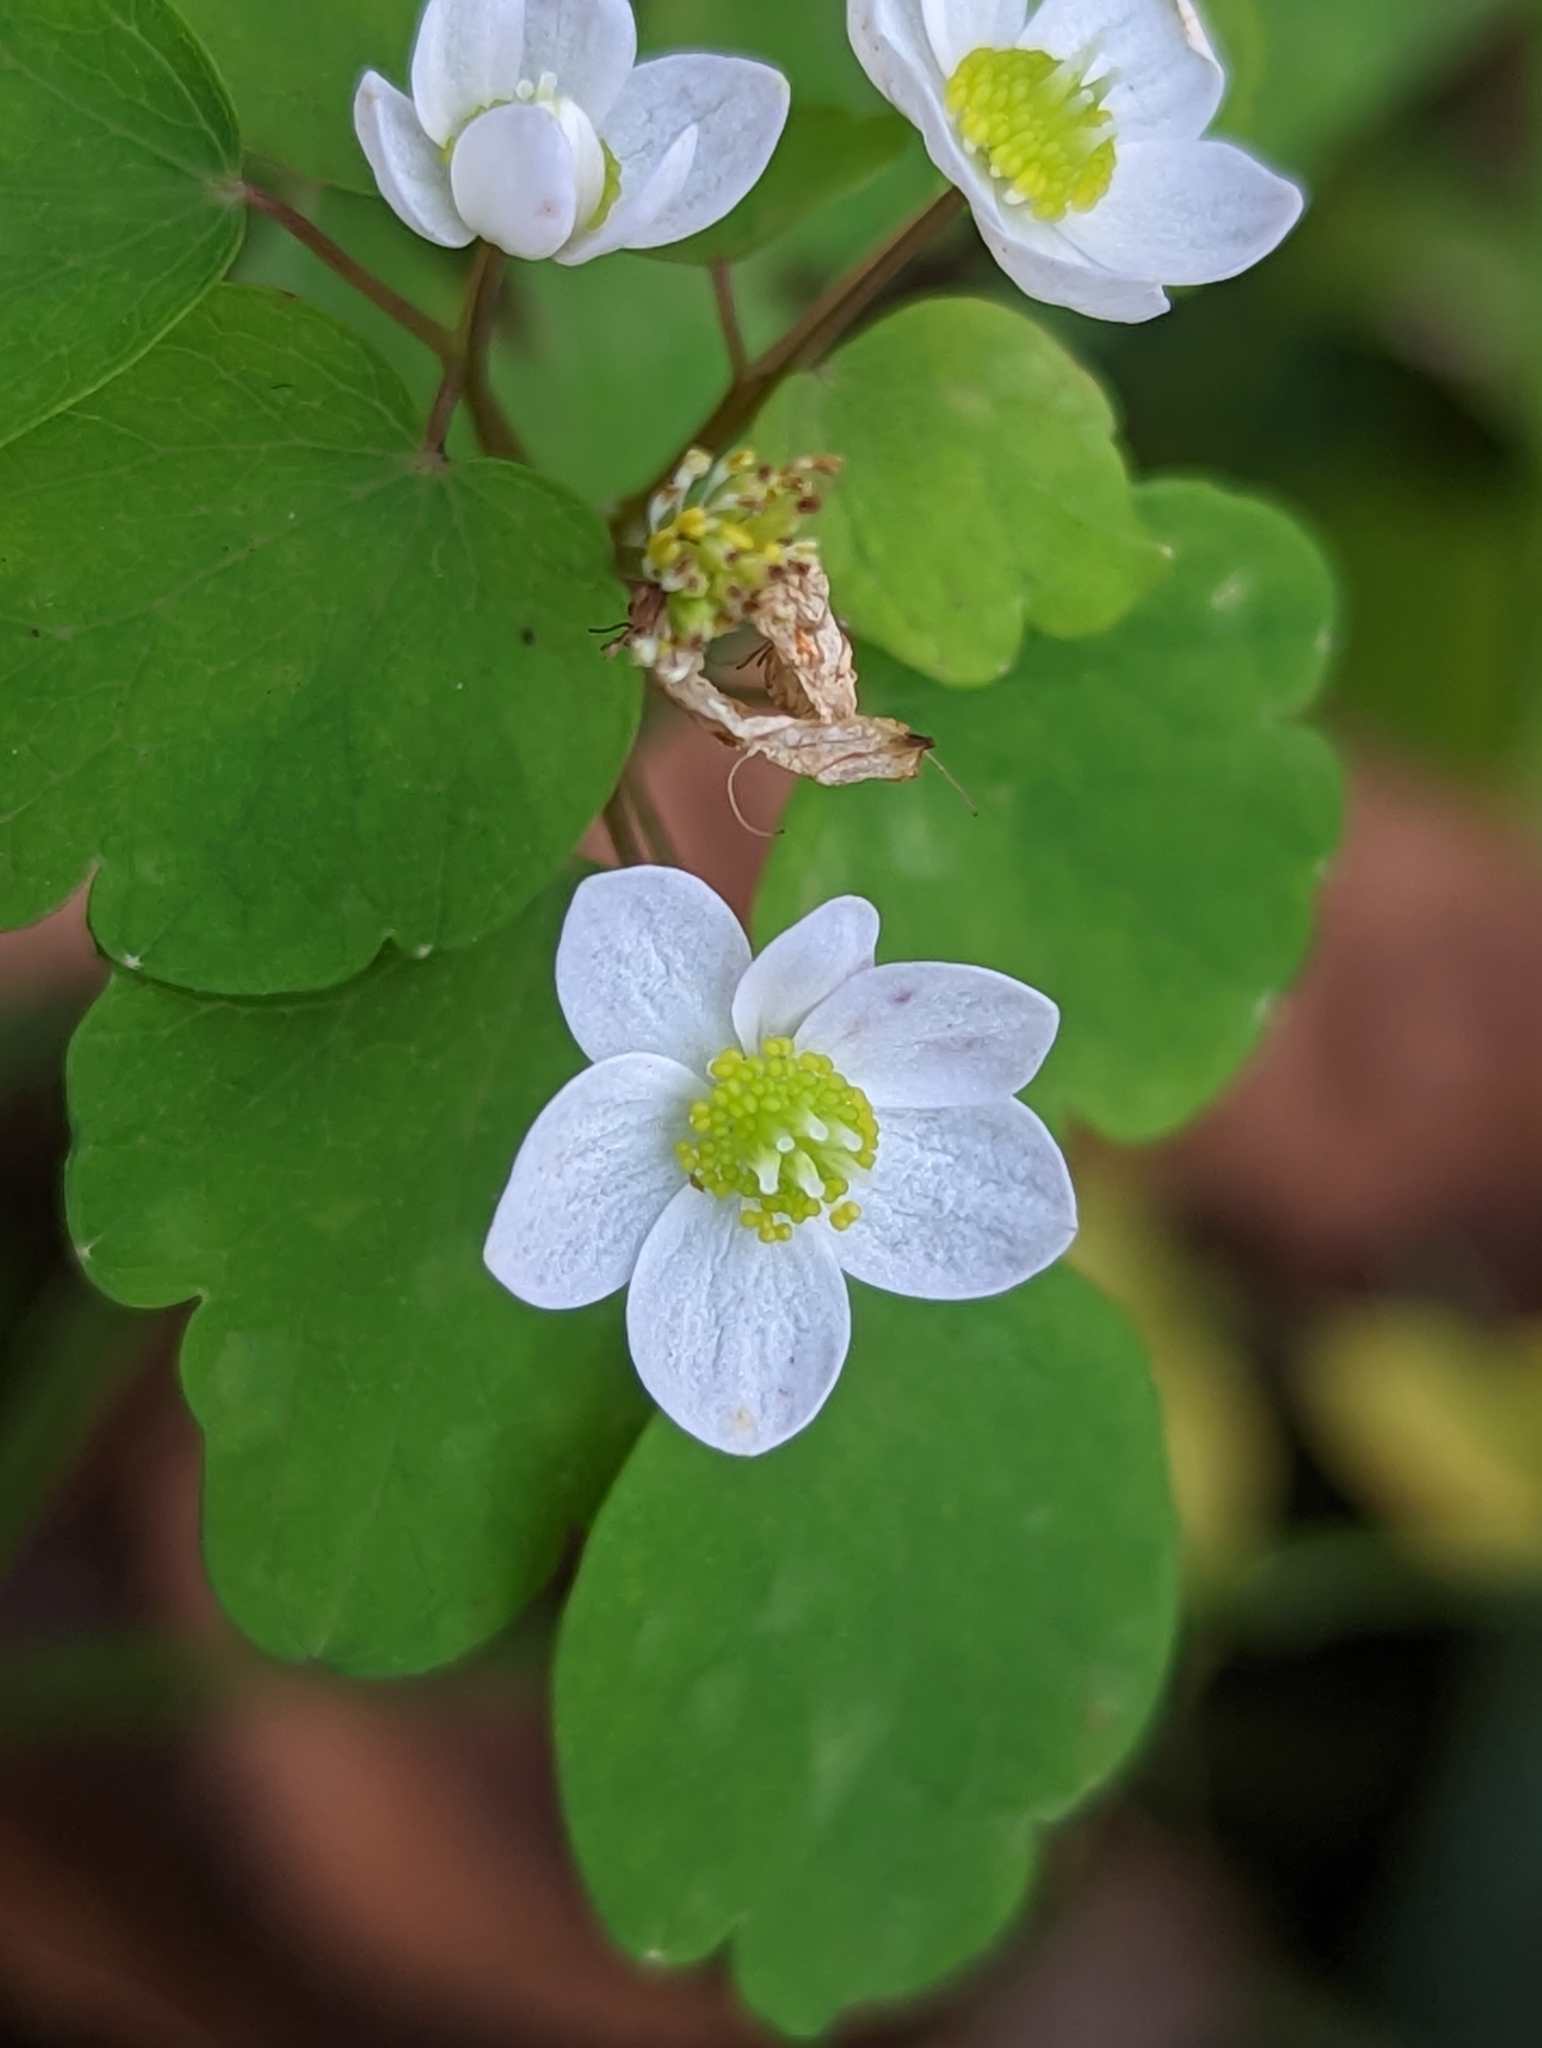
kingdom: Plantae
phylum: Tracheophyta
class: Magnoliopsida
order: Ranunculales
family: Ranunculaceae
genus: Thalictrum
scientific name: Thalictrum thalictroides
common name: Rue-anemone
